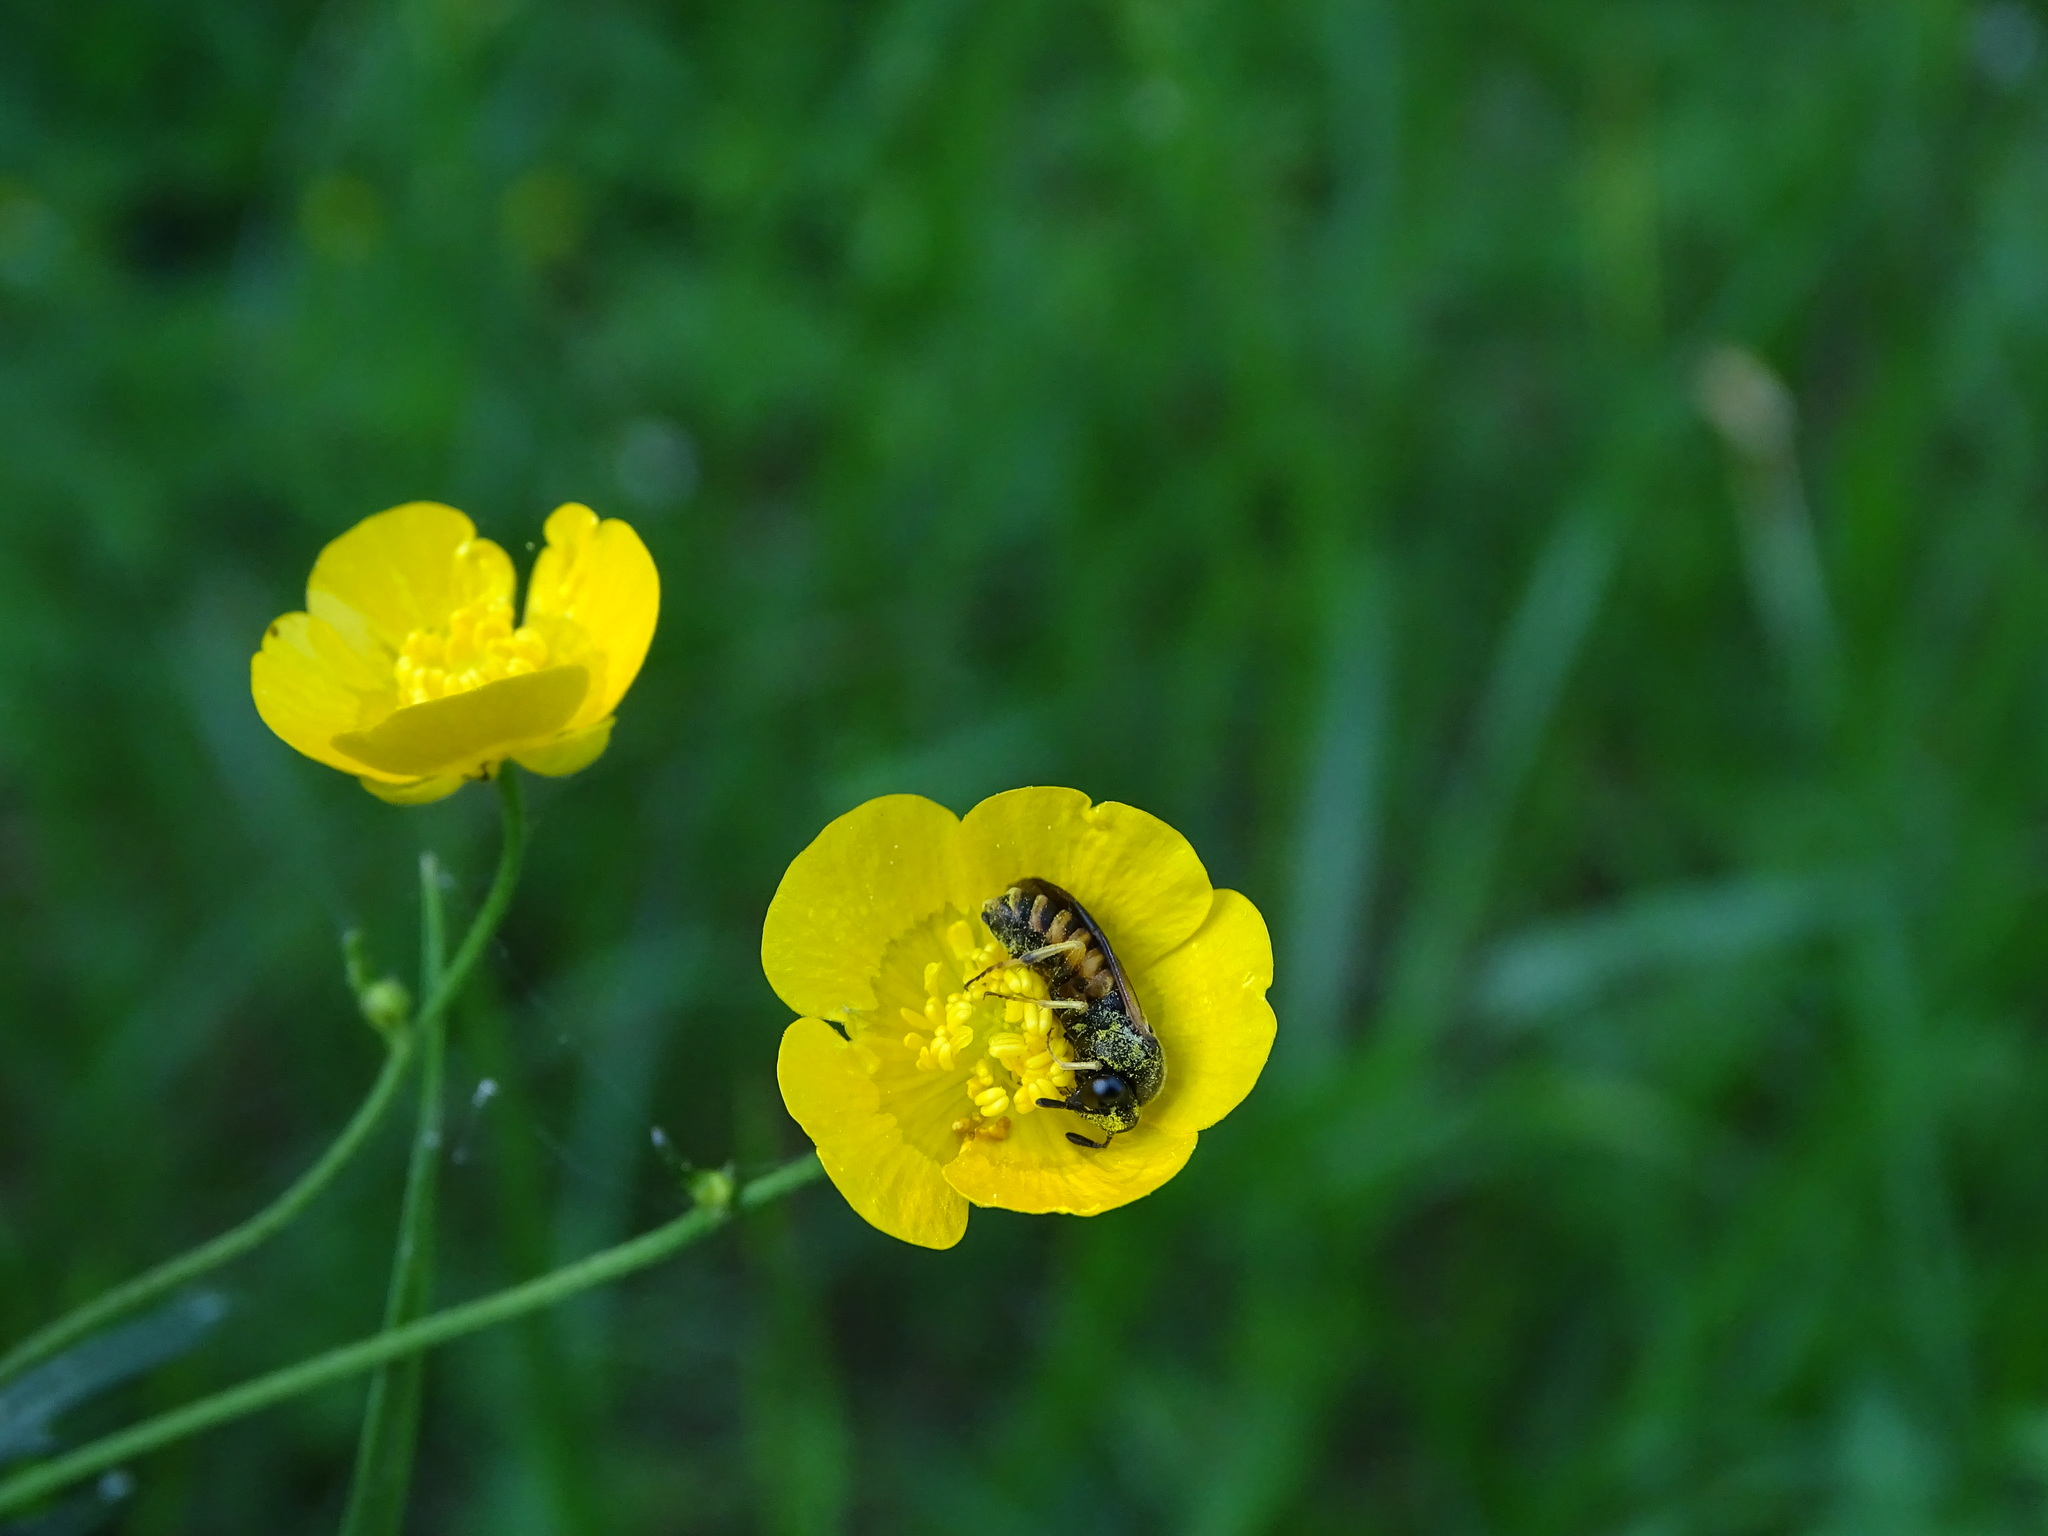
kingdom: Animalia
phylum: Arthropoda
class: Insecta
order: Hymenoptera
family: Cimbicidae
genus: Corynis
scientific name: Corynis crassicornis
